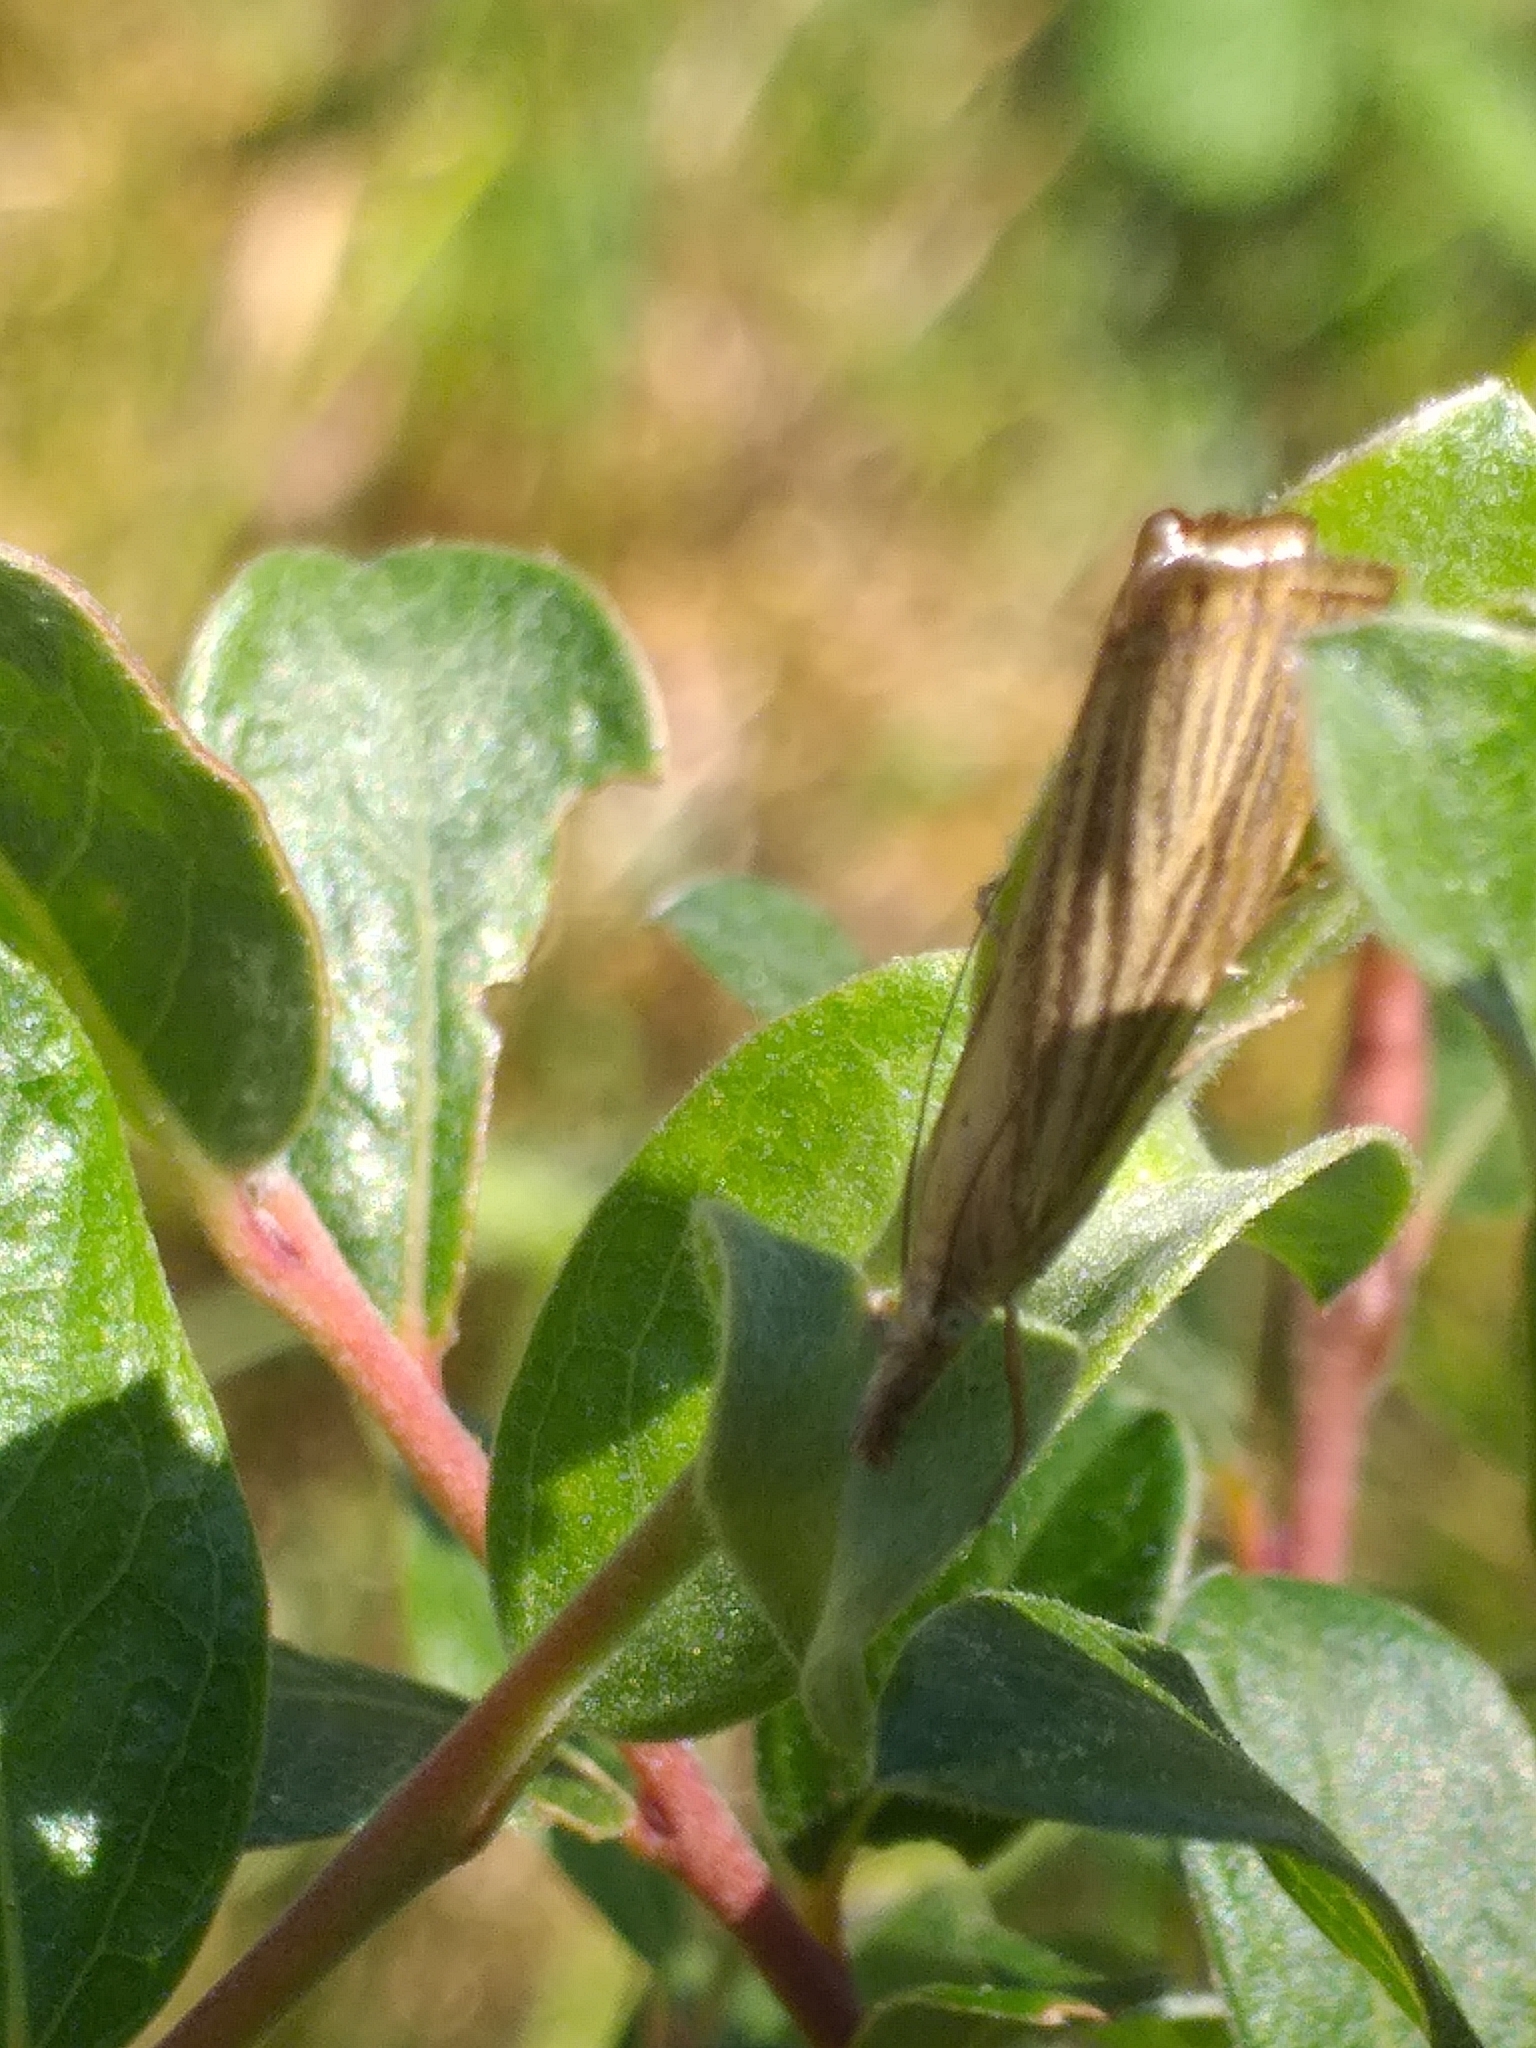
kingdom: Animalia
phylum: Arthropoda
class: Insecta
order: Lepidoptera
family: Crambidae
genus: Chrysoteuchia
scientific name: Chrysoteuchia culmella
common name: Garden grass-veneer
